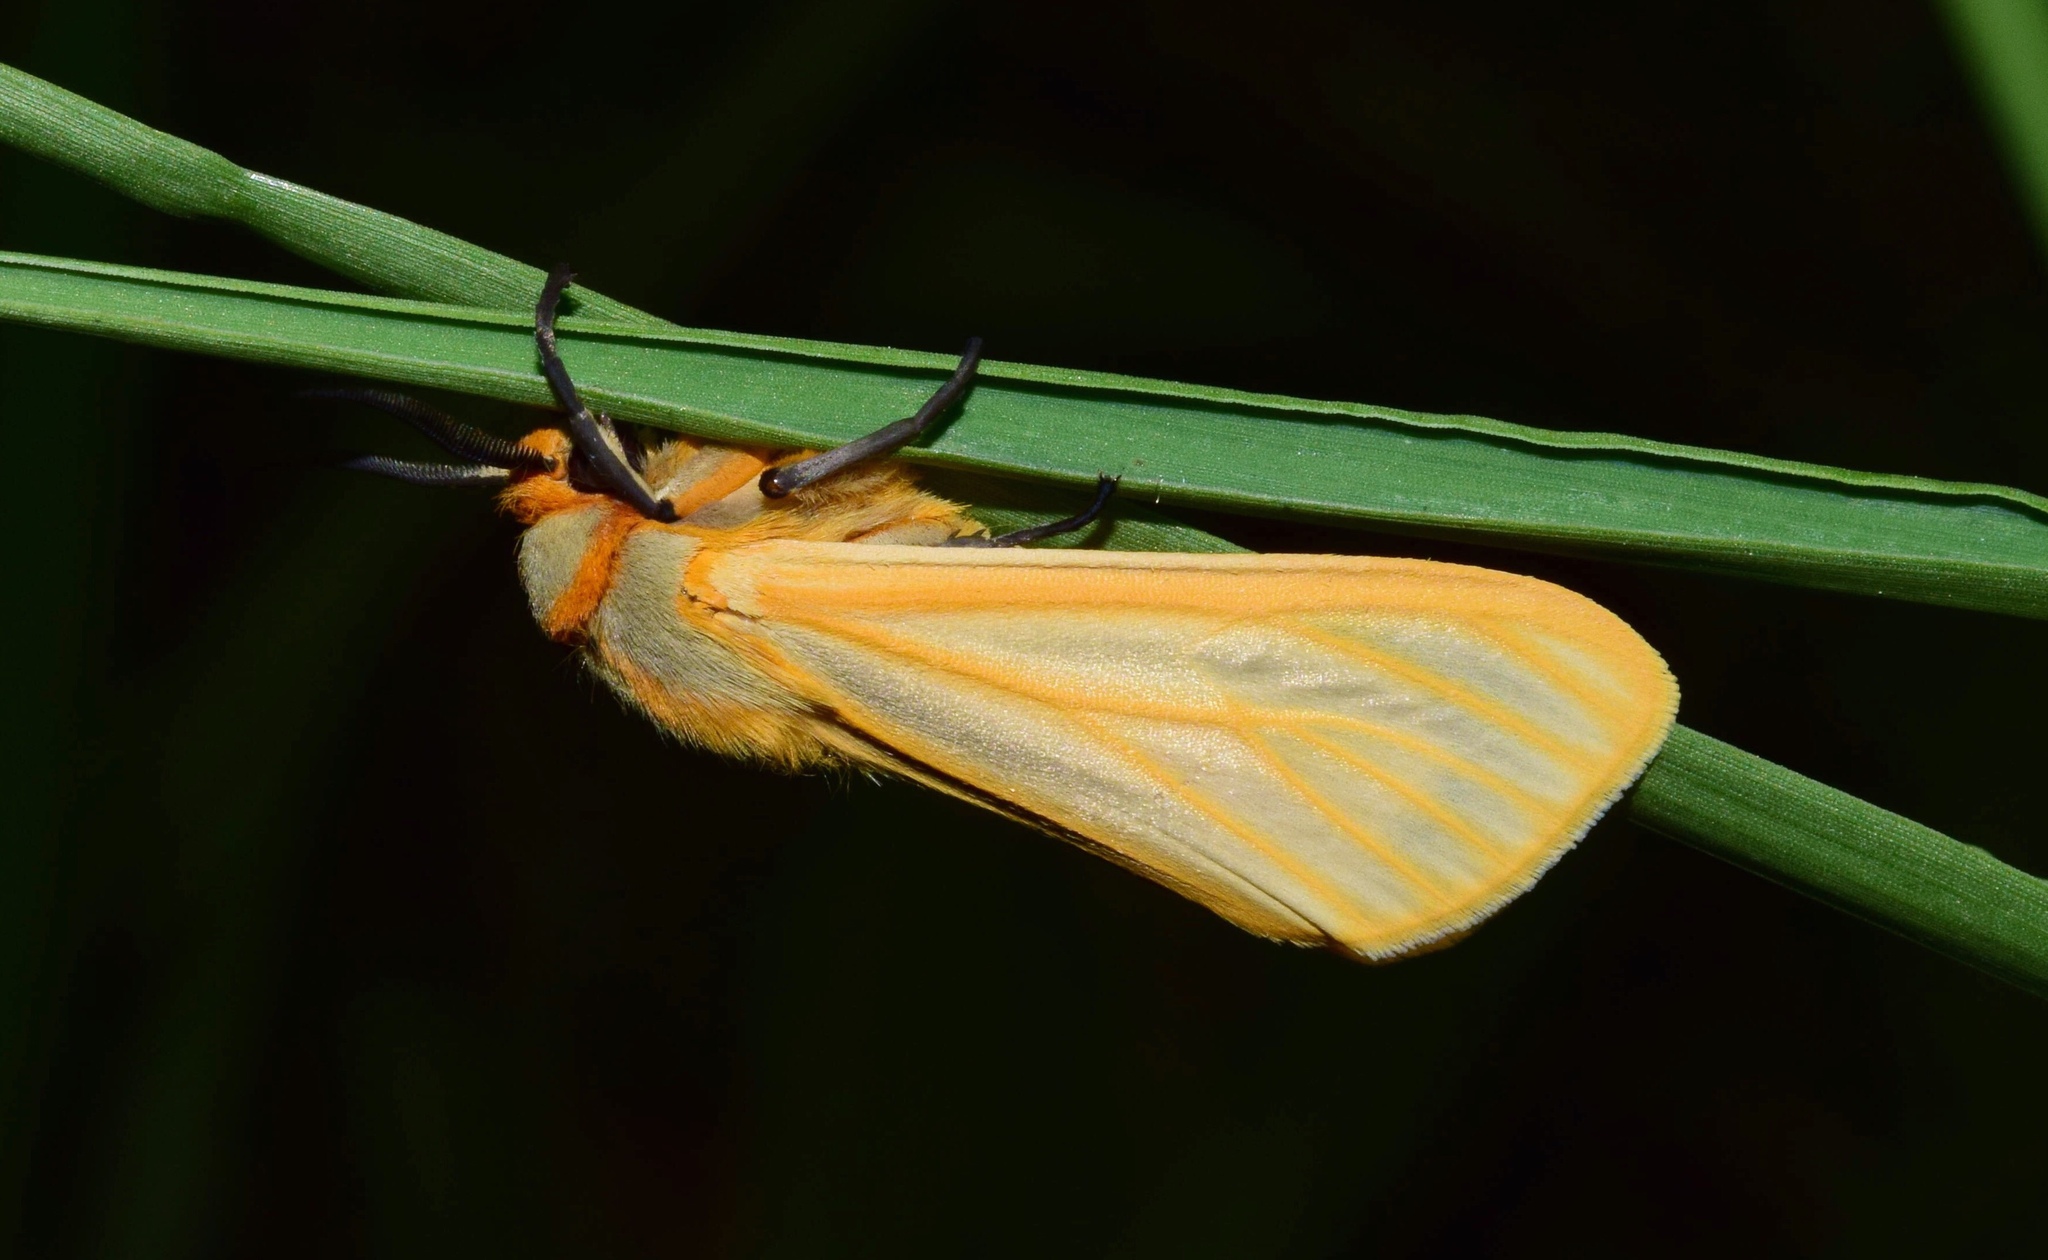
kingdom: Animalia
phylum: Arthropoda
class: Insecta
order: Lepidoptera
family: Erebidae
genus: Afromurzinia
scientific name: Afromurzinia lutescens
